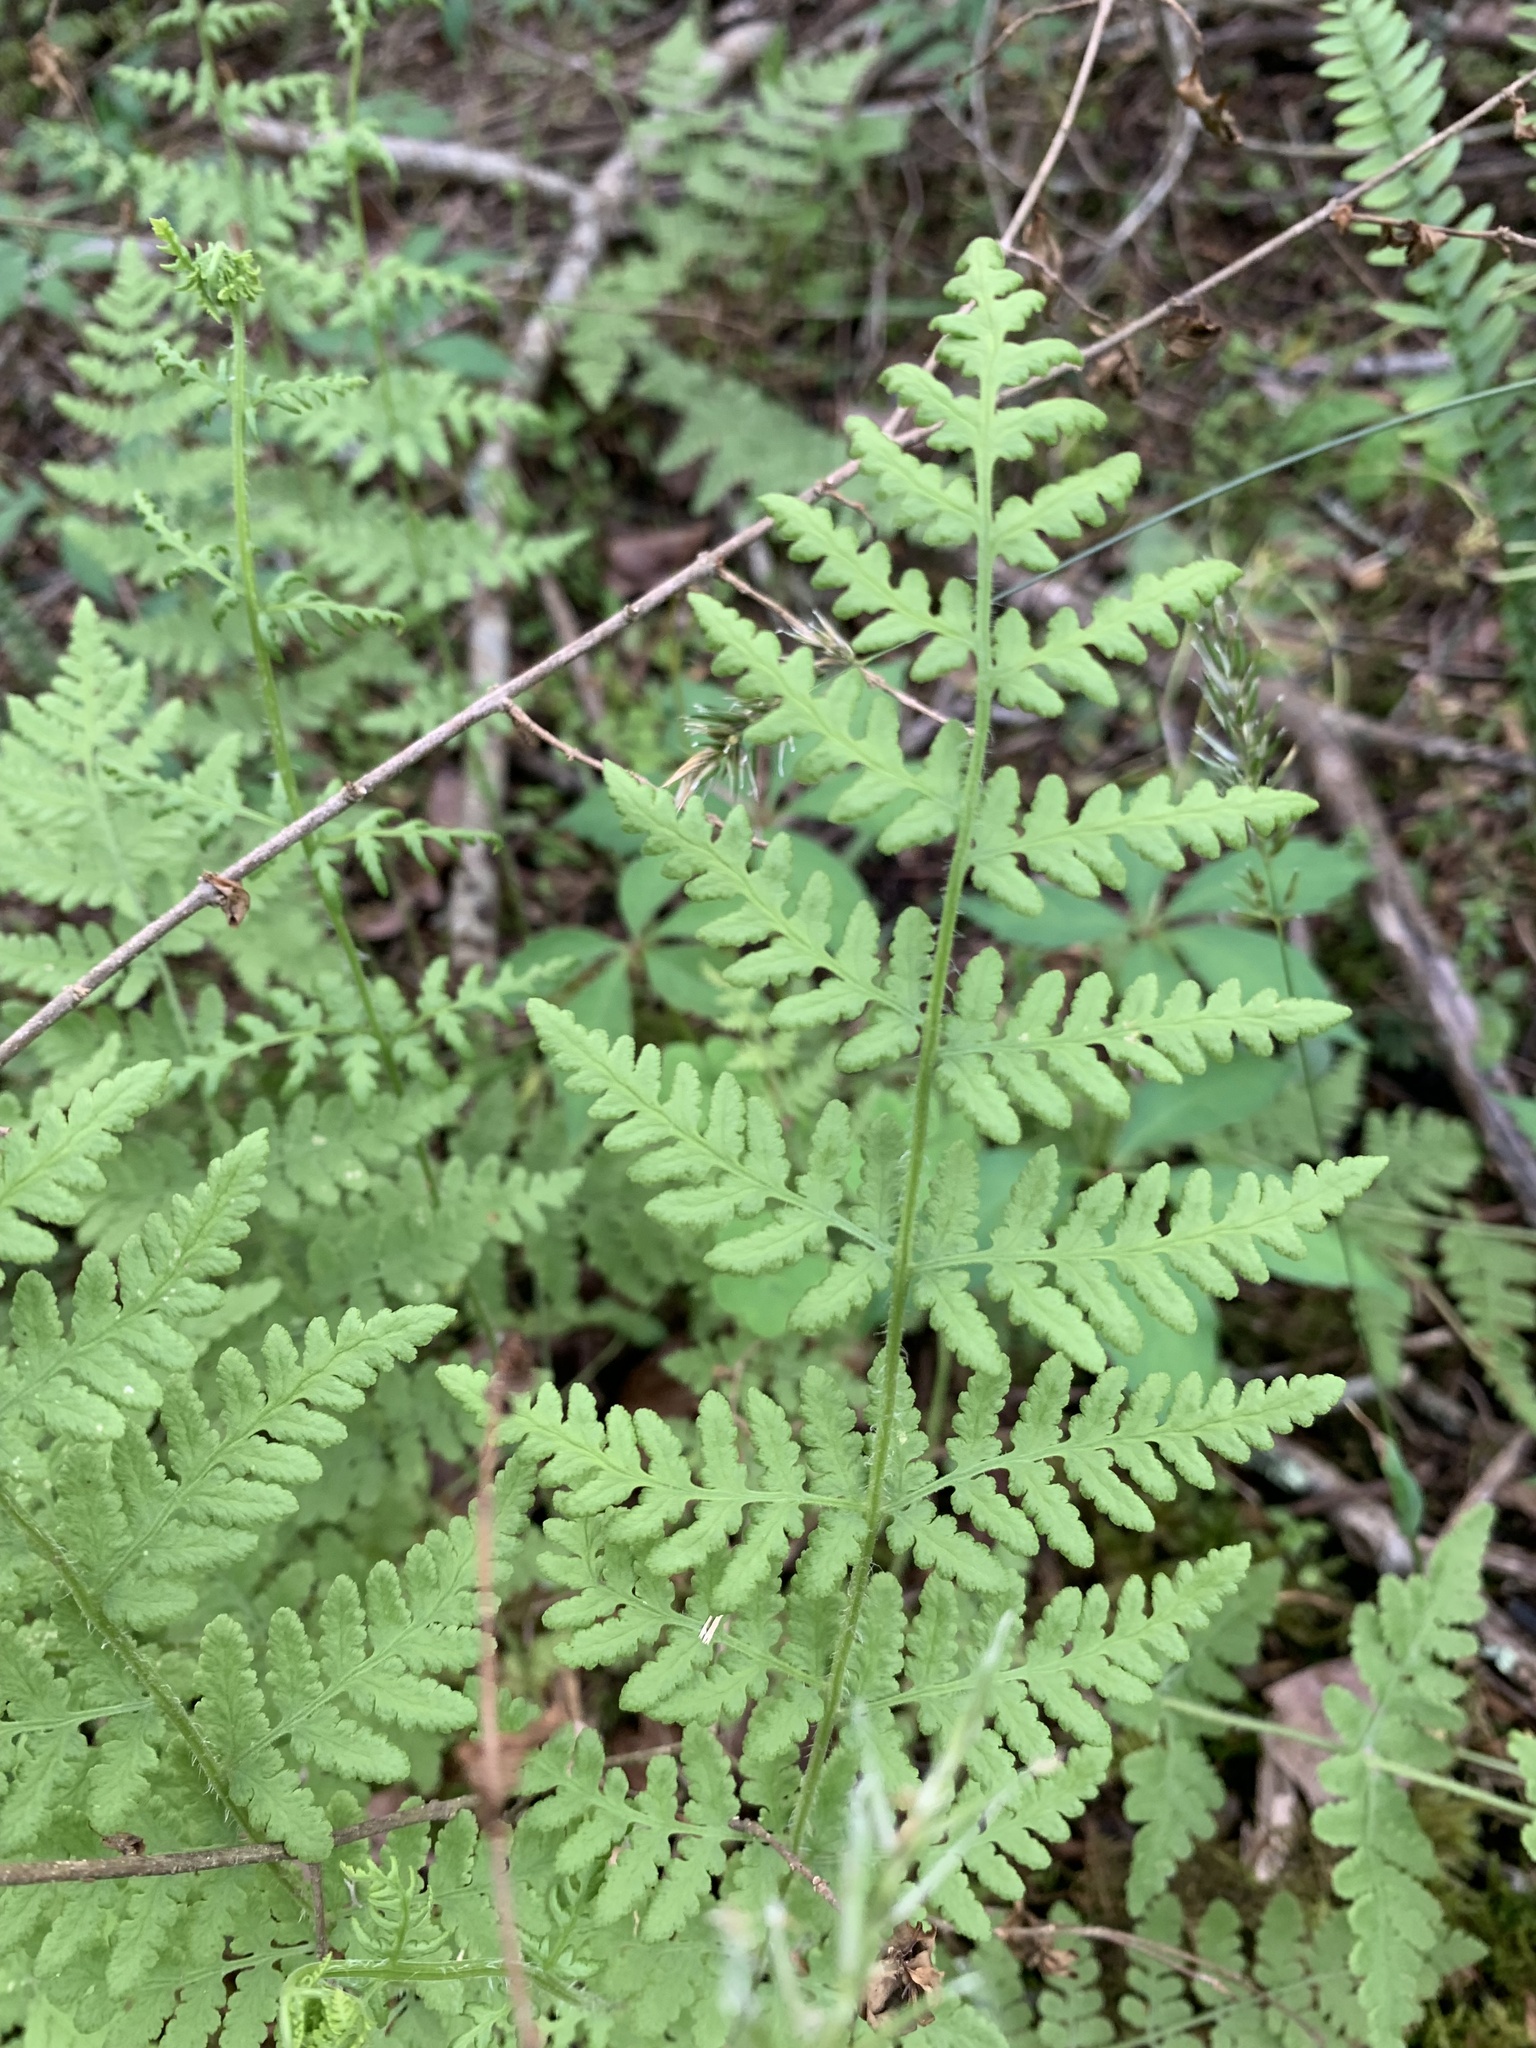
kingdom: Plantae
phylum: Tracheophyta
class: Polypodiopsida
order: Polypodiales
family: Woodsiaceae
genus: Physematium
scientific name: Physematium obtusum
